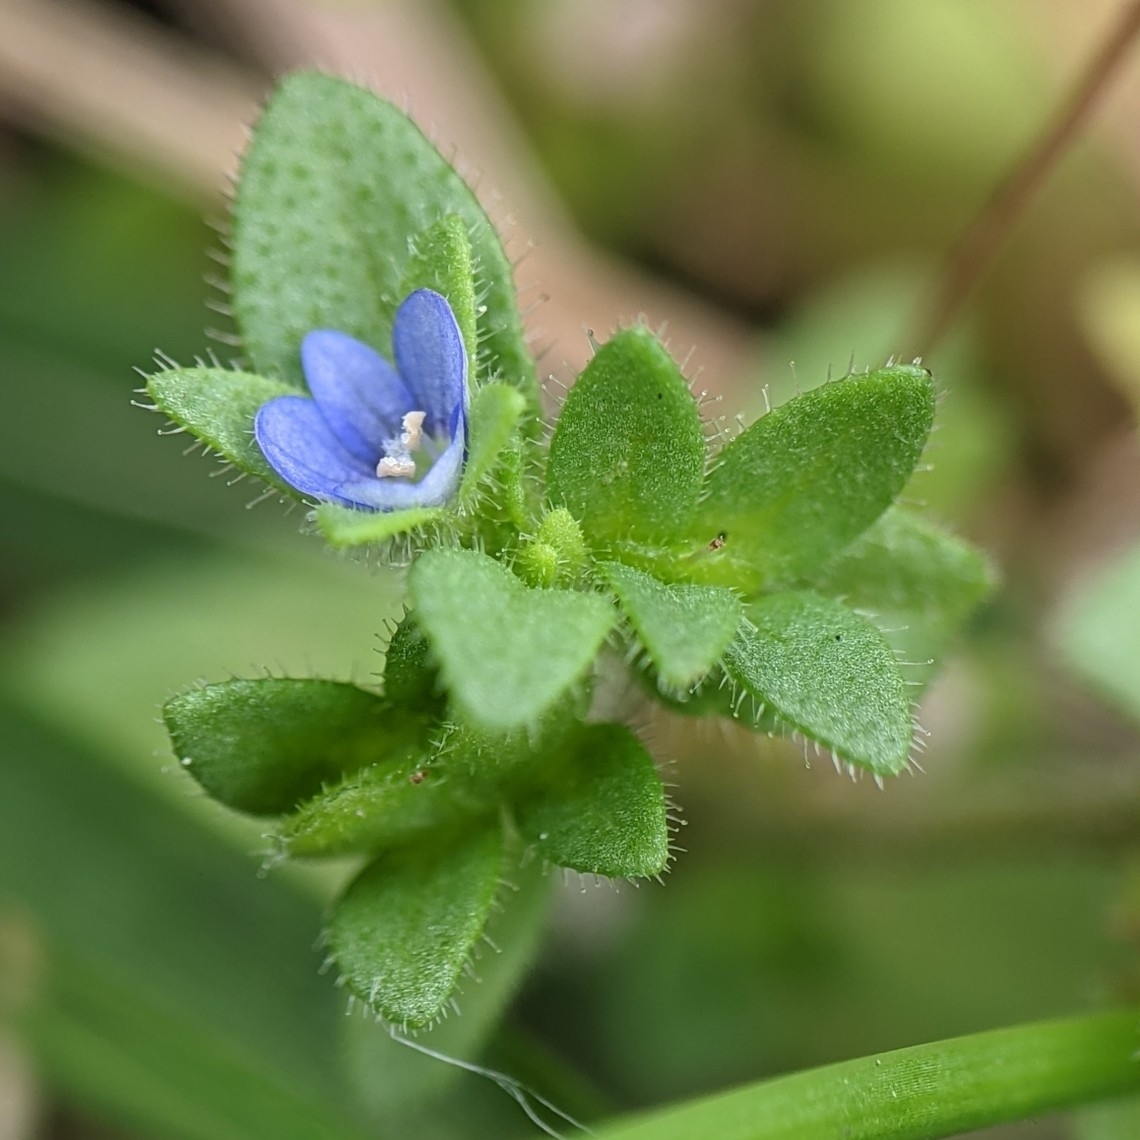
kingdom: Plantae
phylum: Tracheophyta
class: Magnoliopsida
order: Lamiales
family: Plantaginaceae
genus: Veronica
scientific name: Veronica arvensis
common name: Corn speedwell
